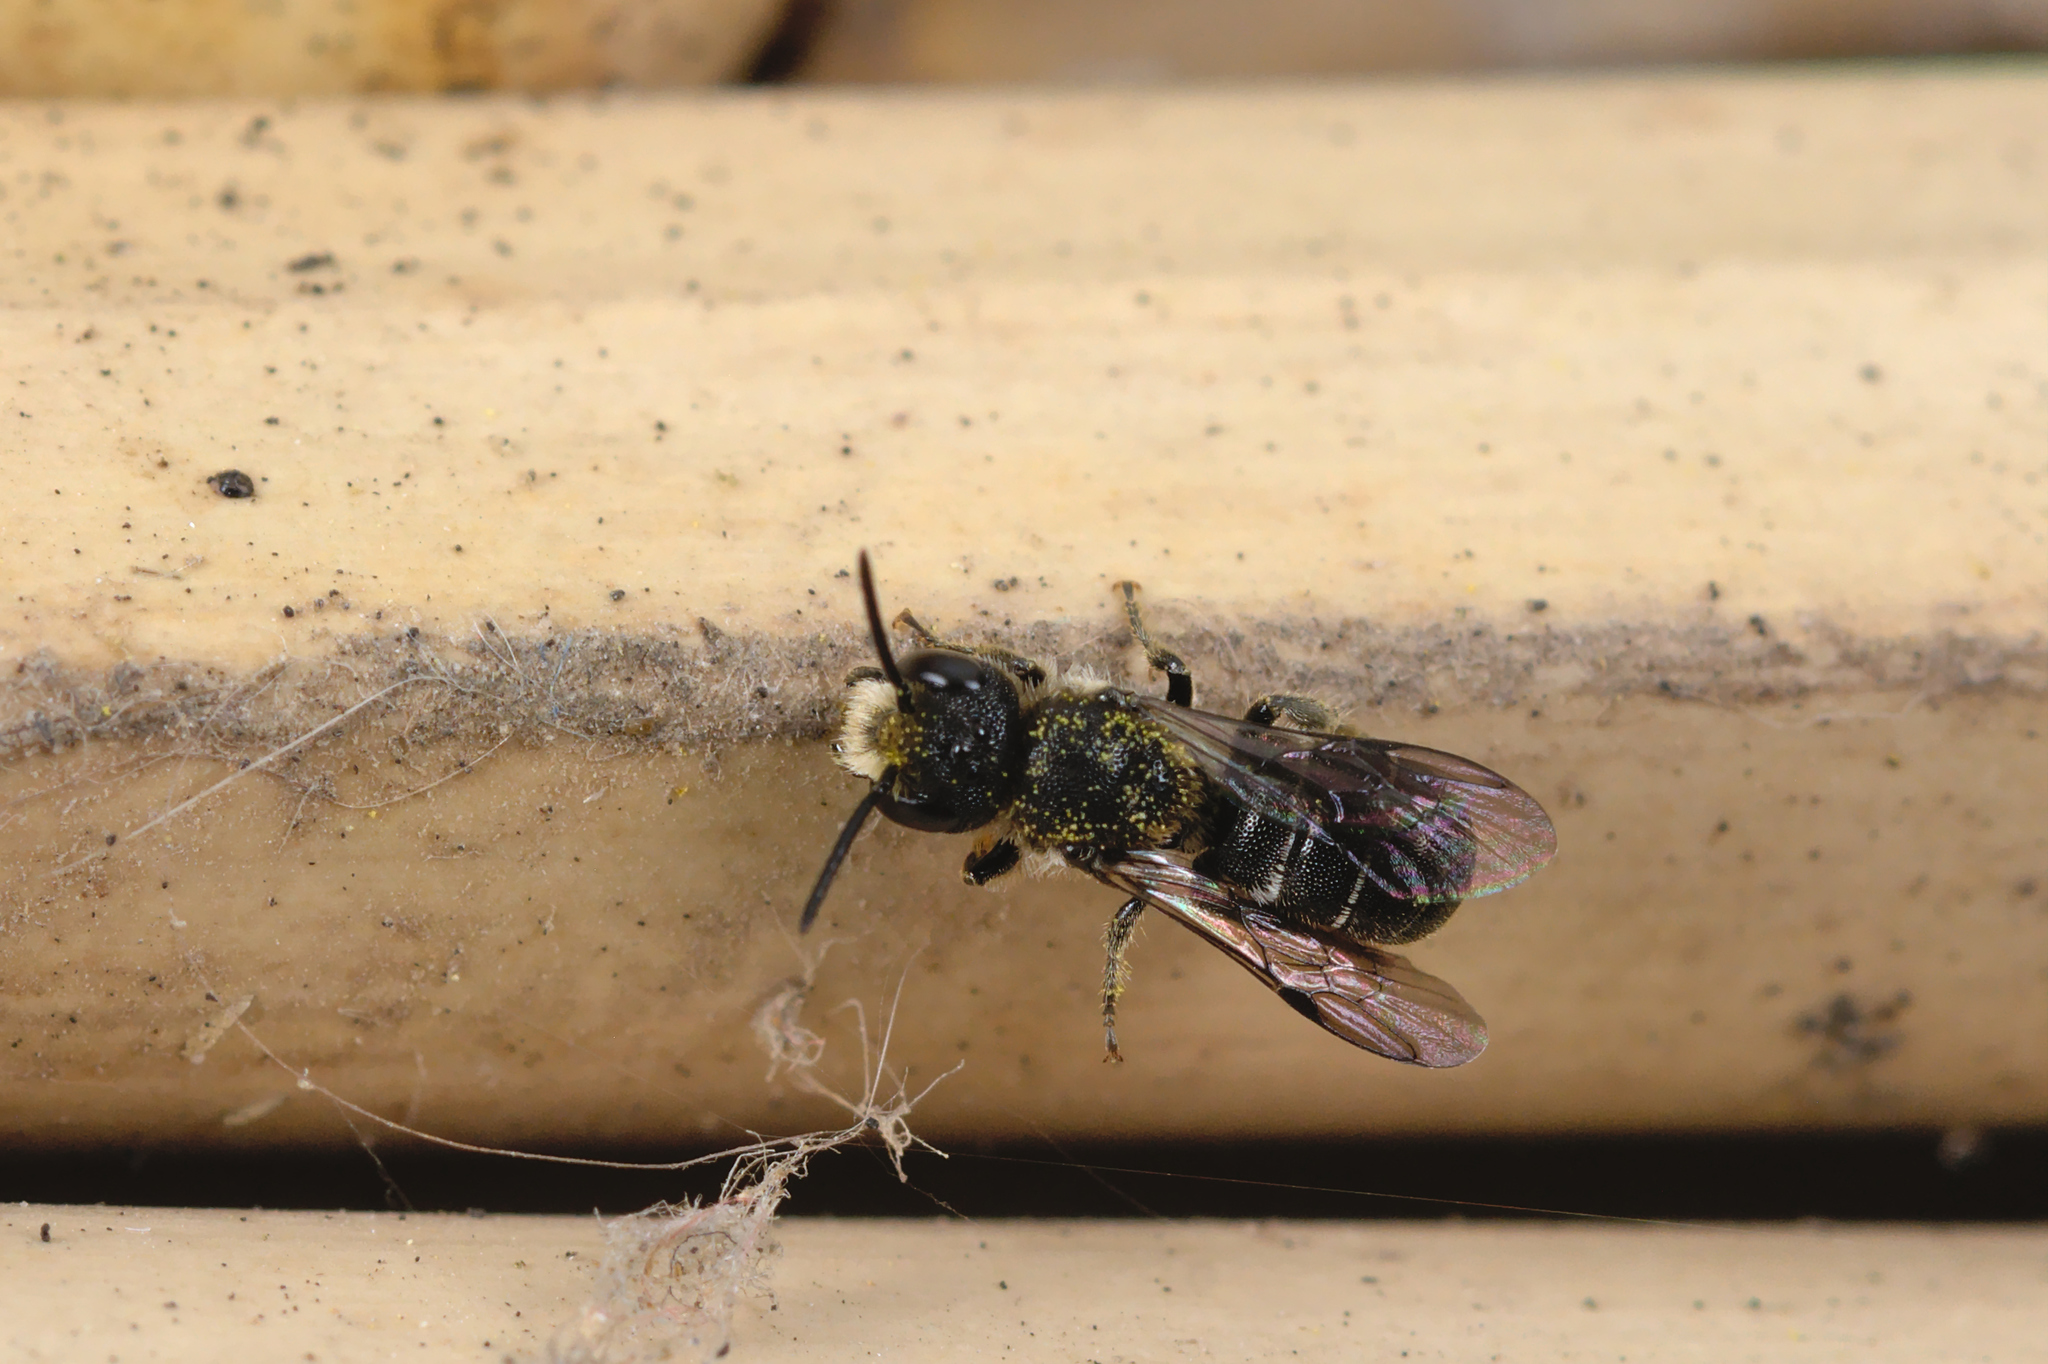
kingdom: Animalia
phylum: Arthropoda
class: Insecta
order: Hymenoptera
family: Megachilidae
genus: Heriades
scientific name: Heriades truncorum
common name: Ridge-saddled carpenter bee
